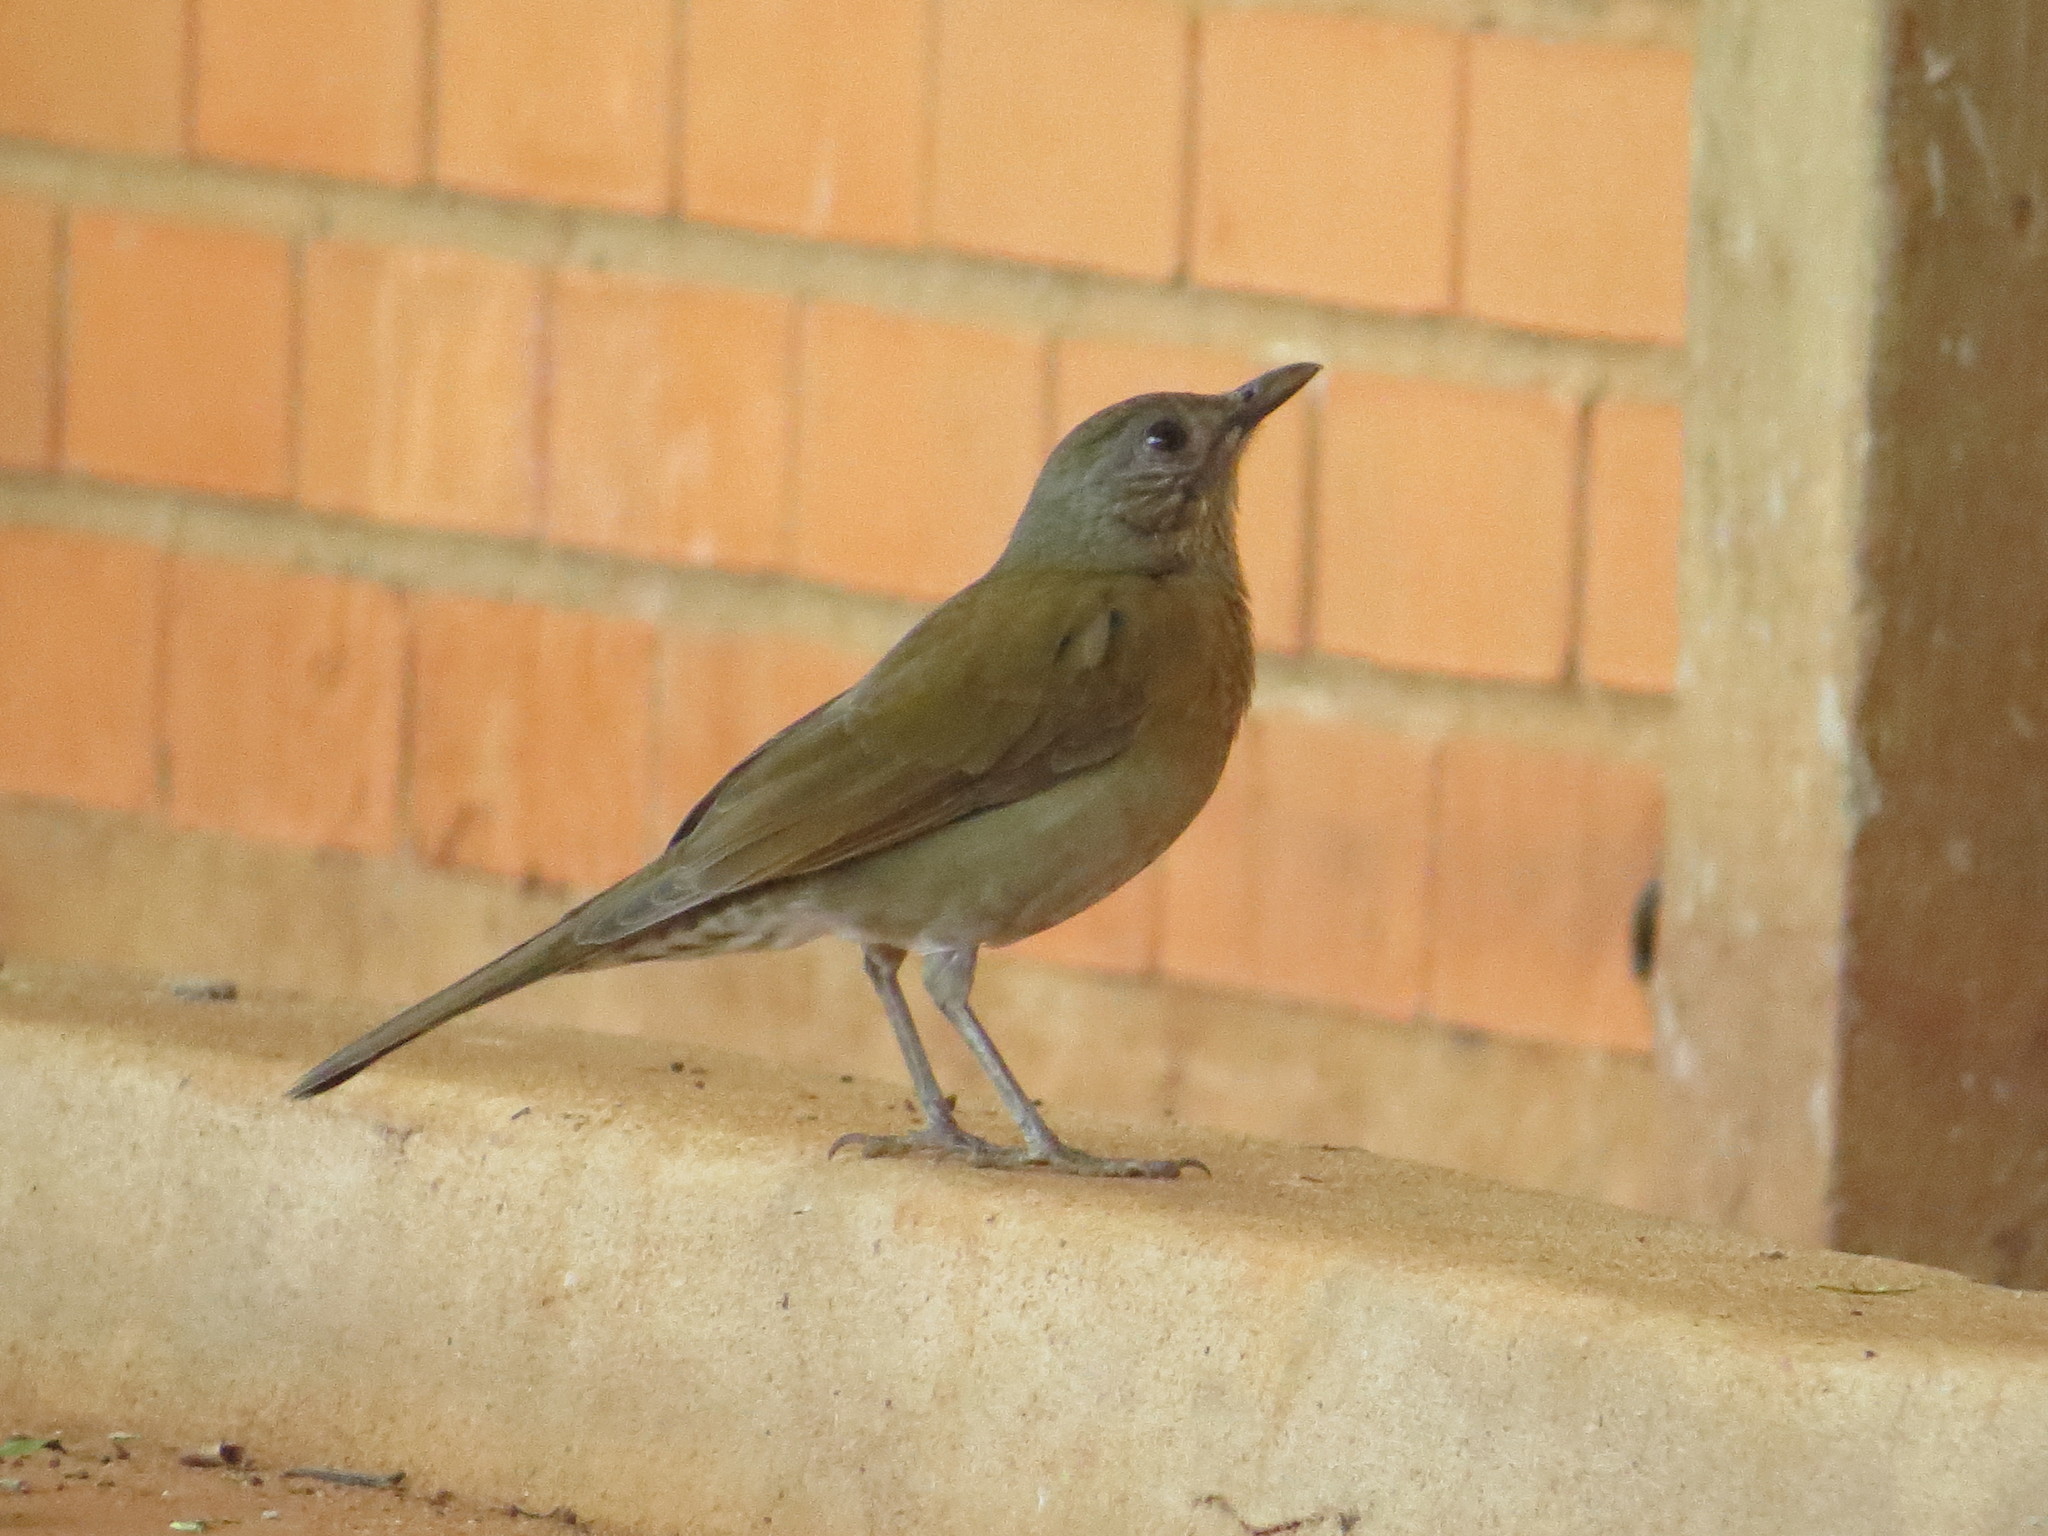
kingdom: Animalia
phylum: Chordata
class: Aves
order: Passeriformes
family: Turdidae
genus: Turdus
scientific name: Turdus leucomelas
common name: Pale-breasted thrush
